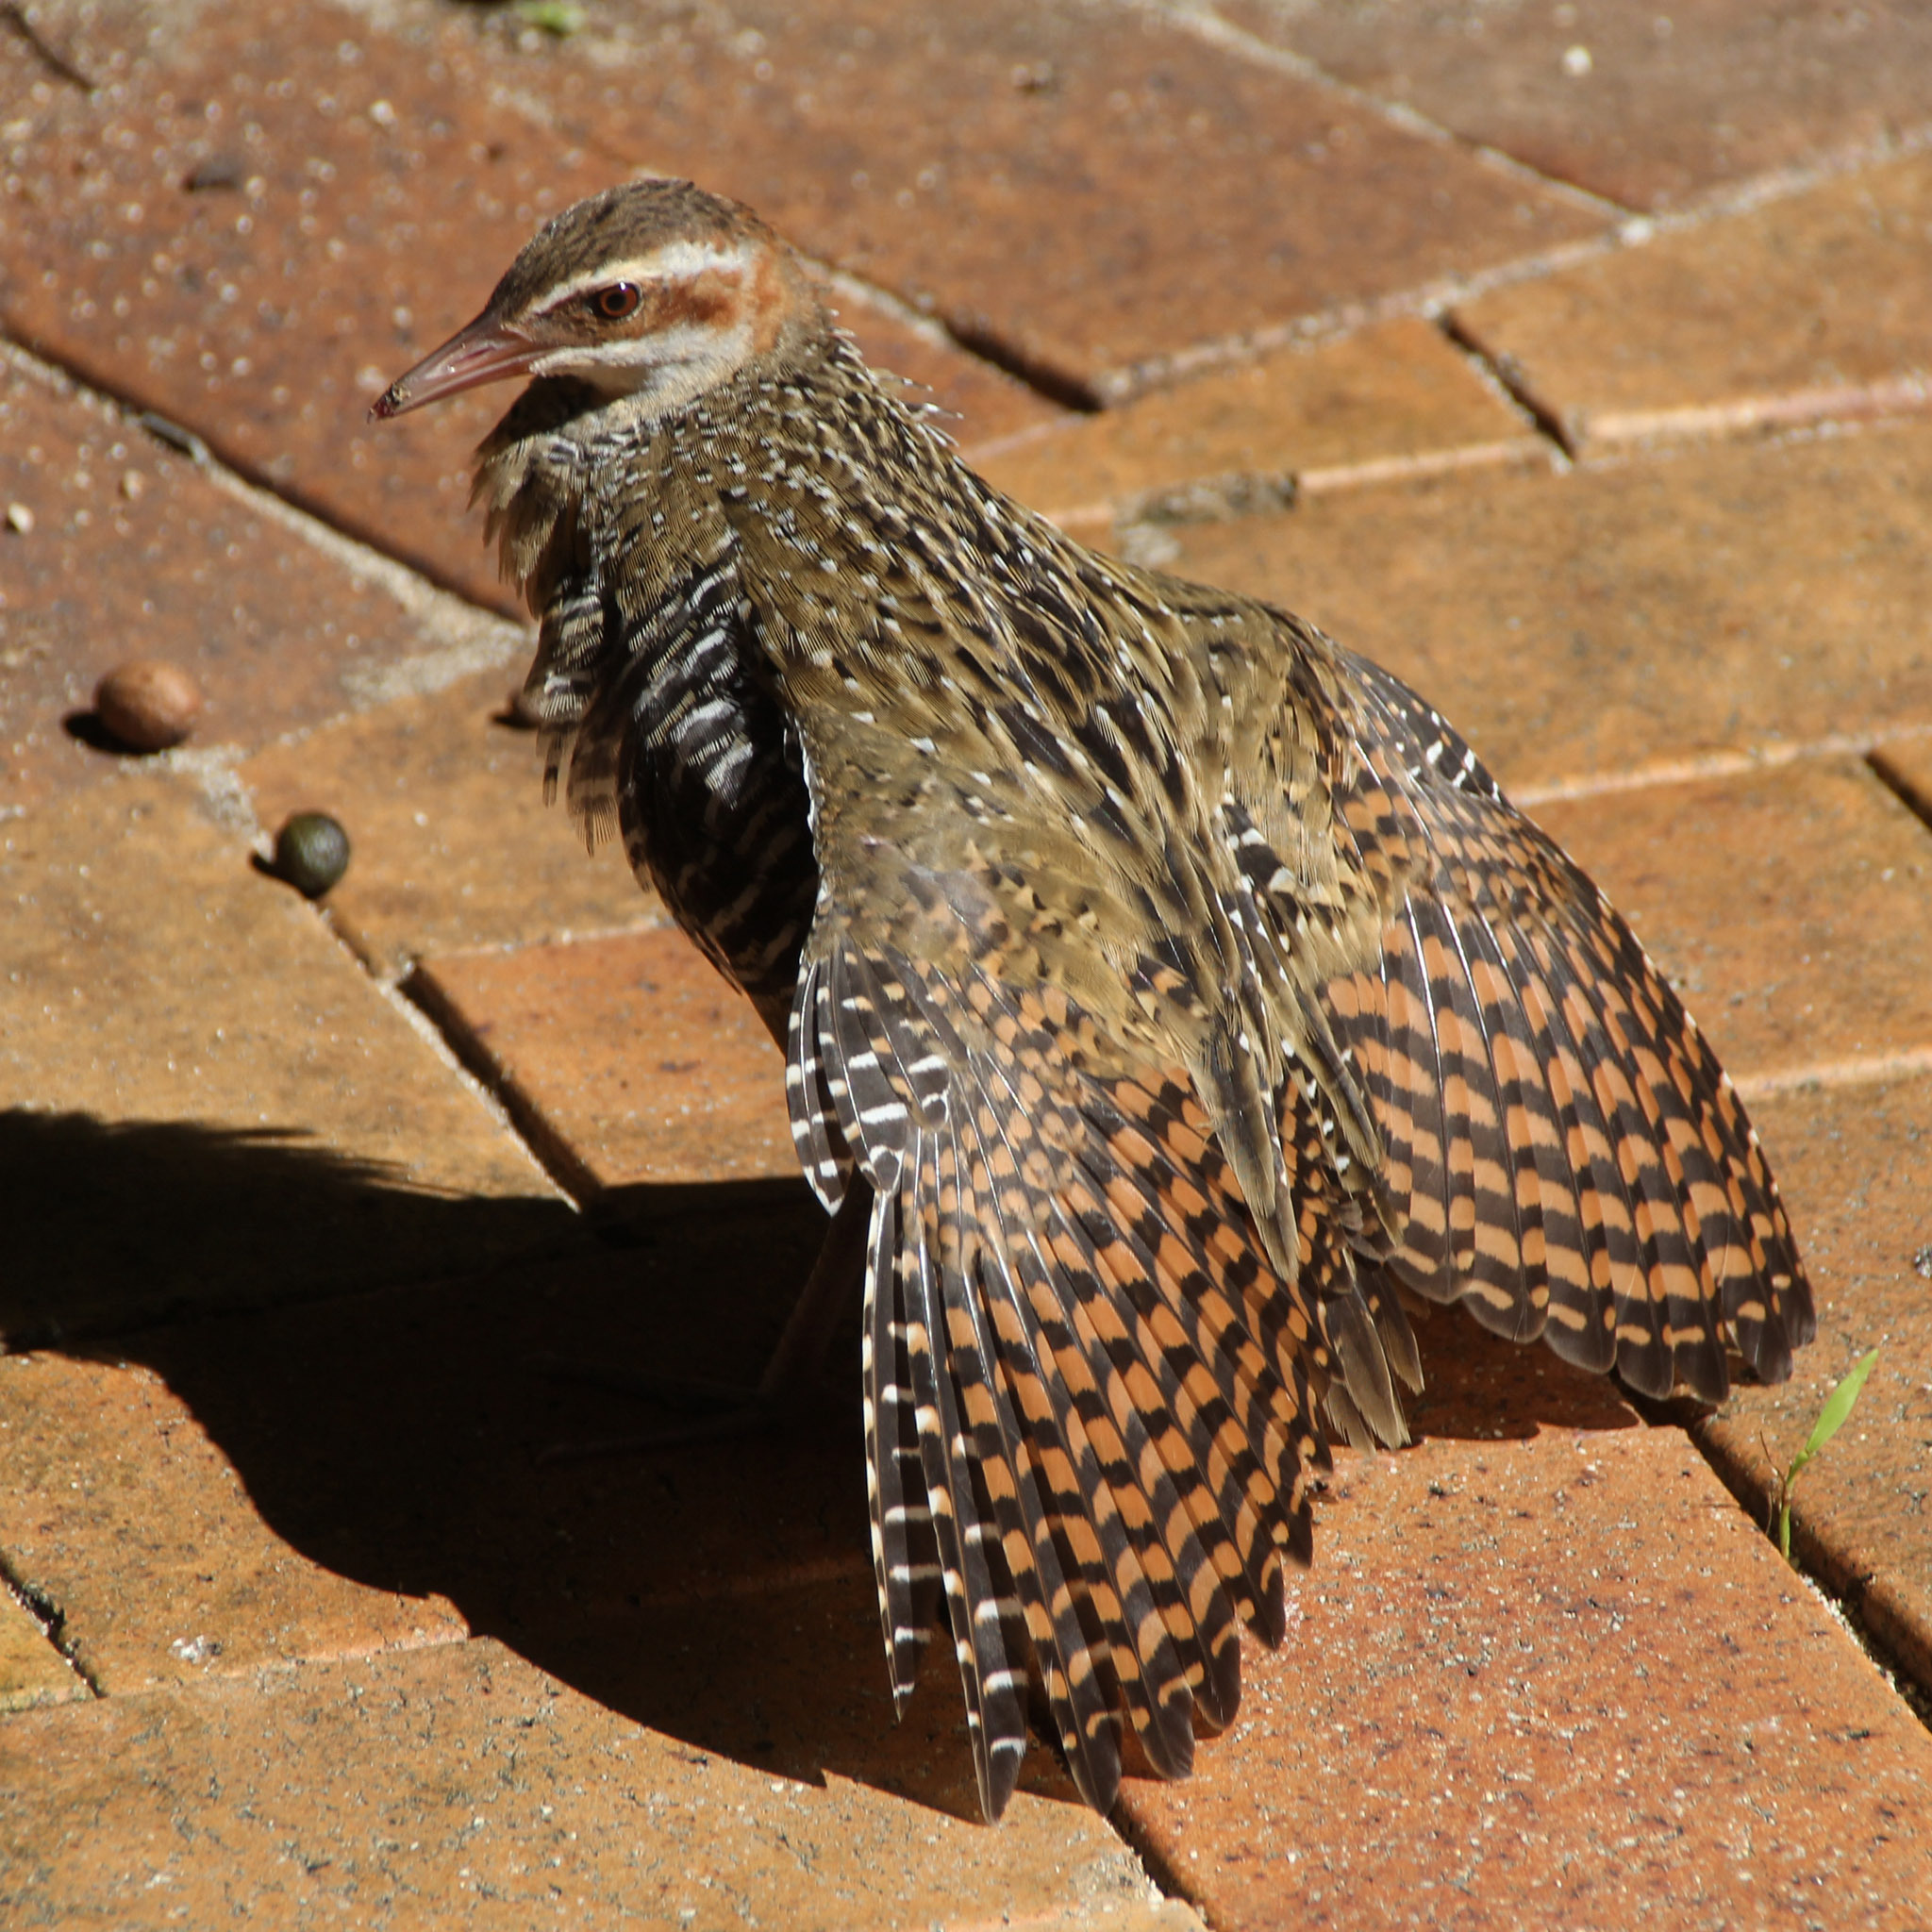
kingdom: Animalia
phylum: Chordata
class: Aves
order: Gruiformes
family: Rallidae
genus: Gallirallus
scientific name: Gallirallus philippensis
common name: Buff-banded rail
